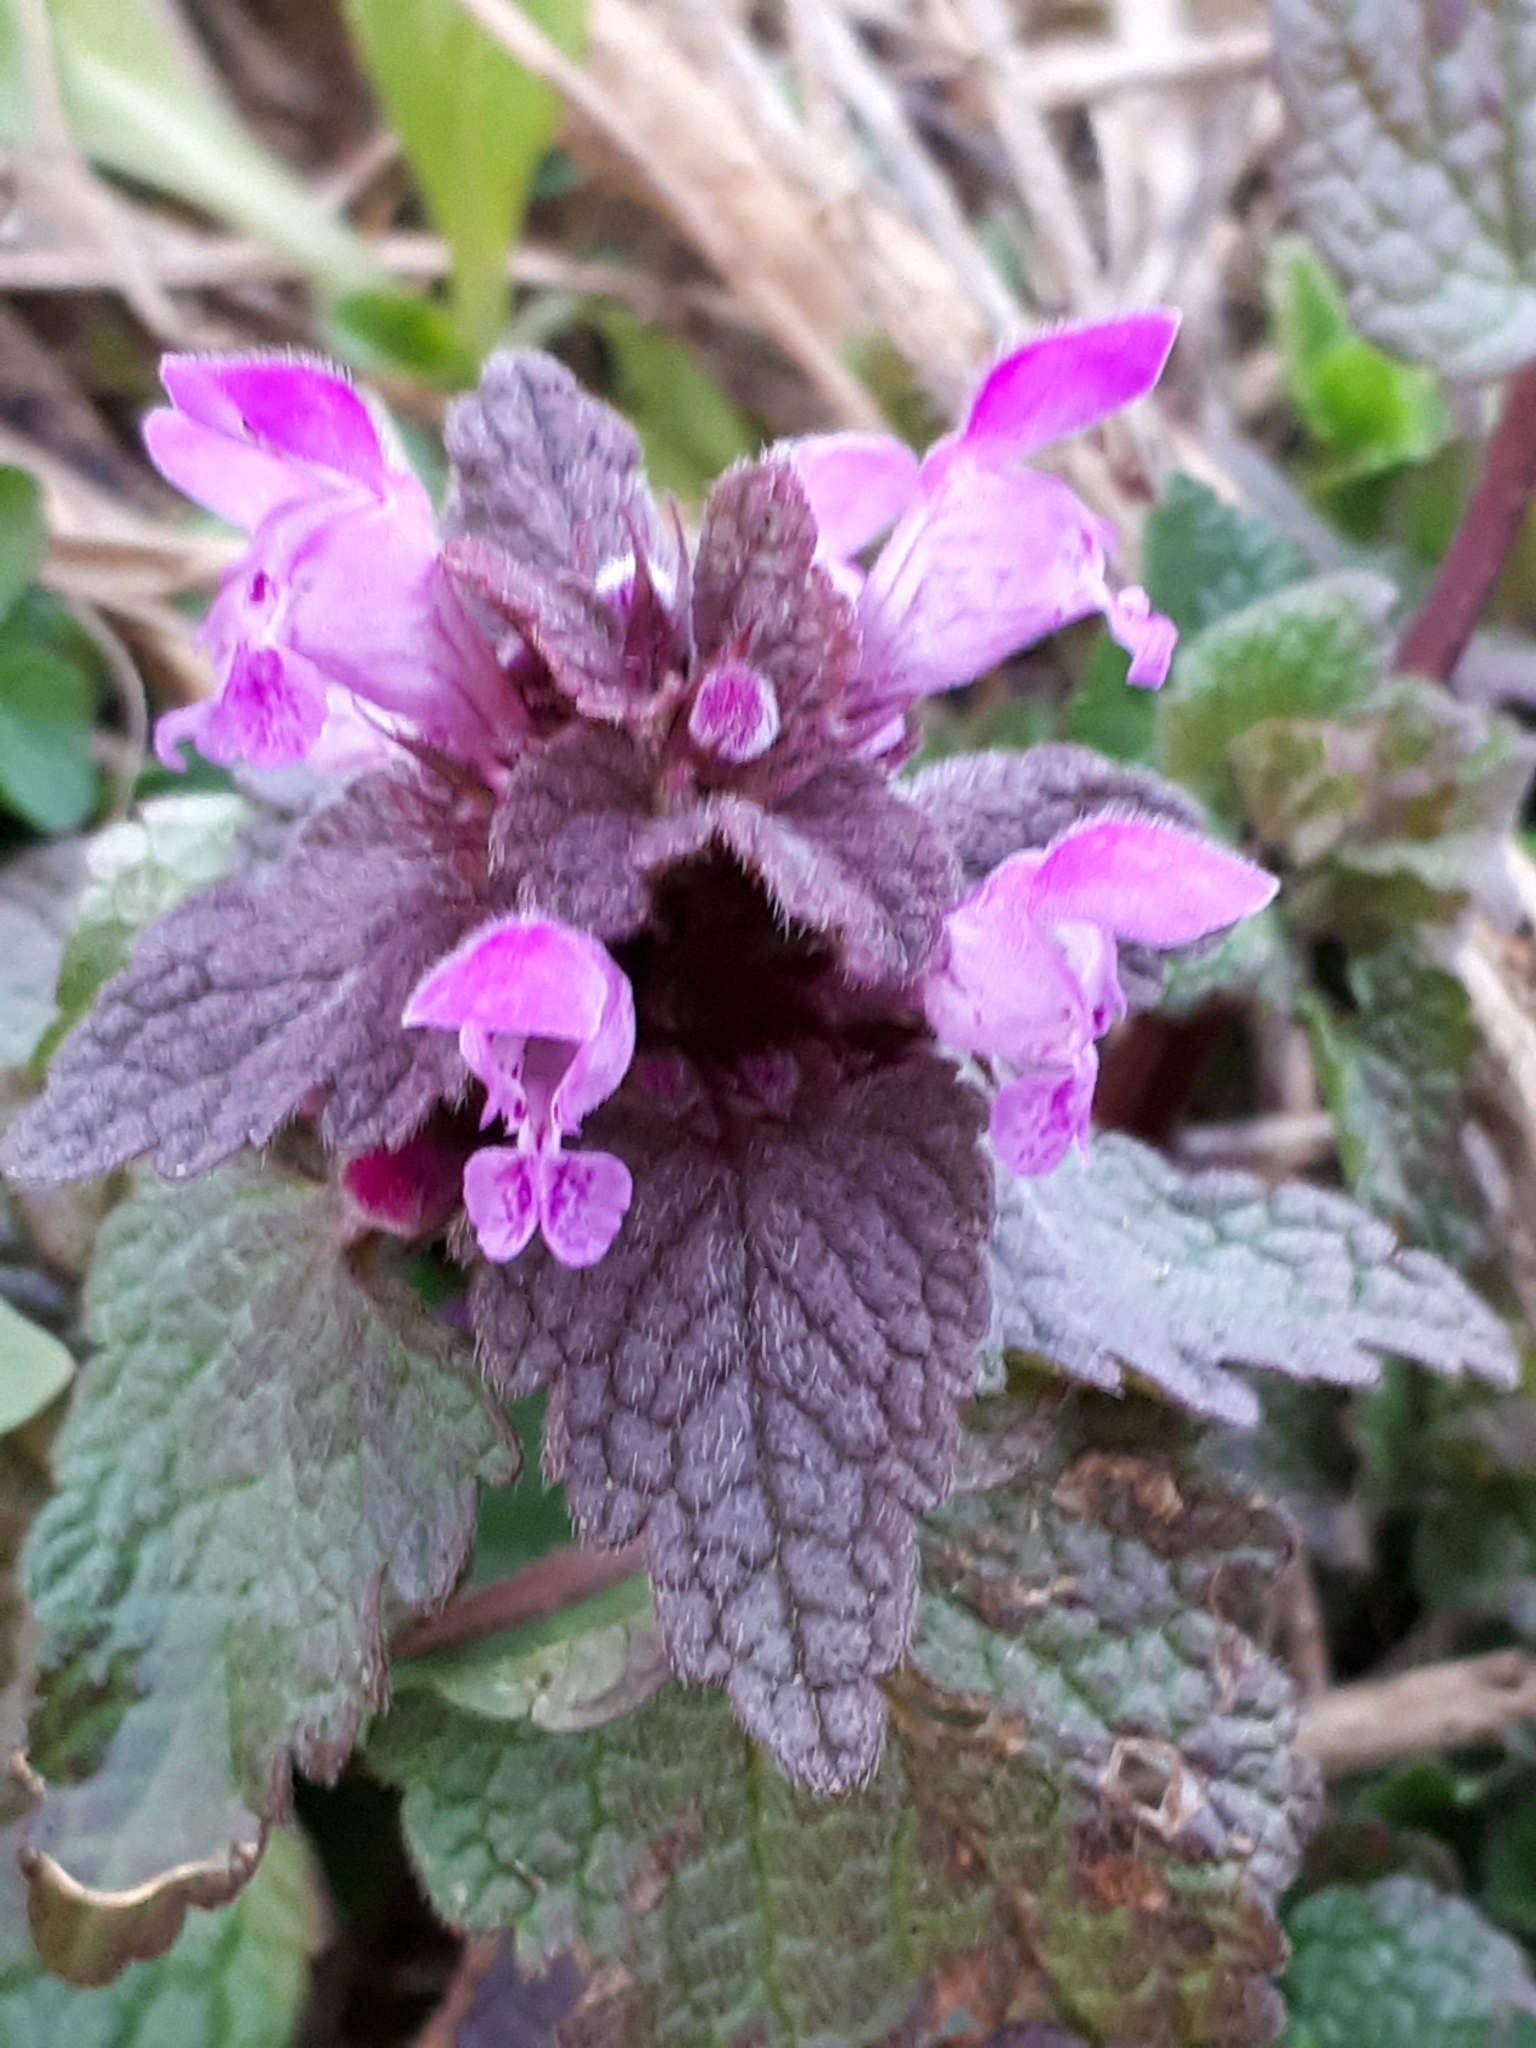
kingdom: Plantae
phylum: Tracheophyta
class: Magnoliopsida
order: Lamiales
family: Lamiaceae
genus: Lamium
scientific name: Lamium purpureum
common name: Red dead-nettle
